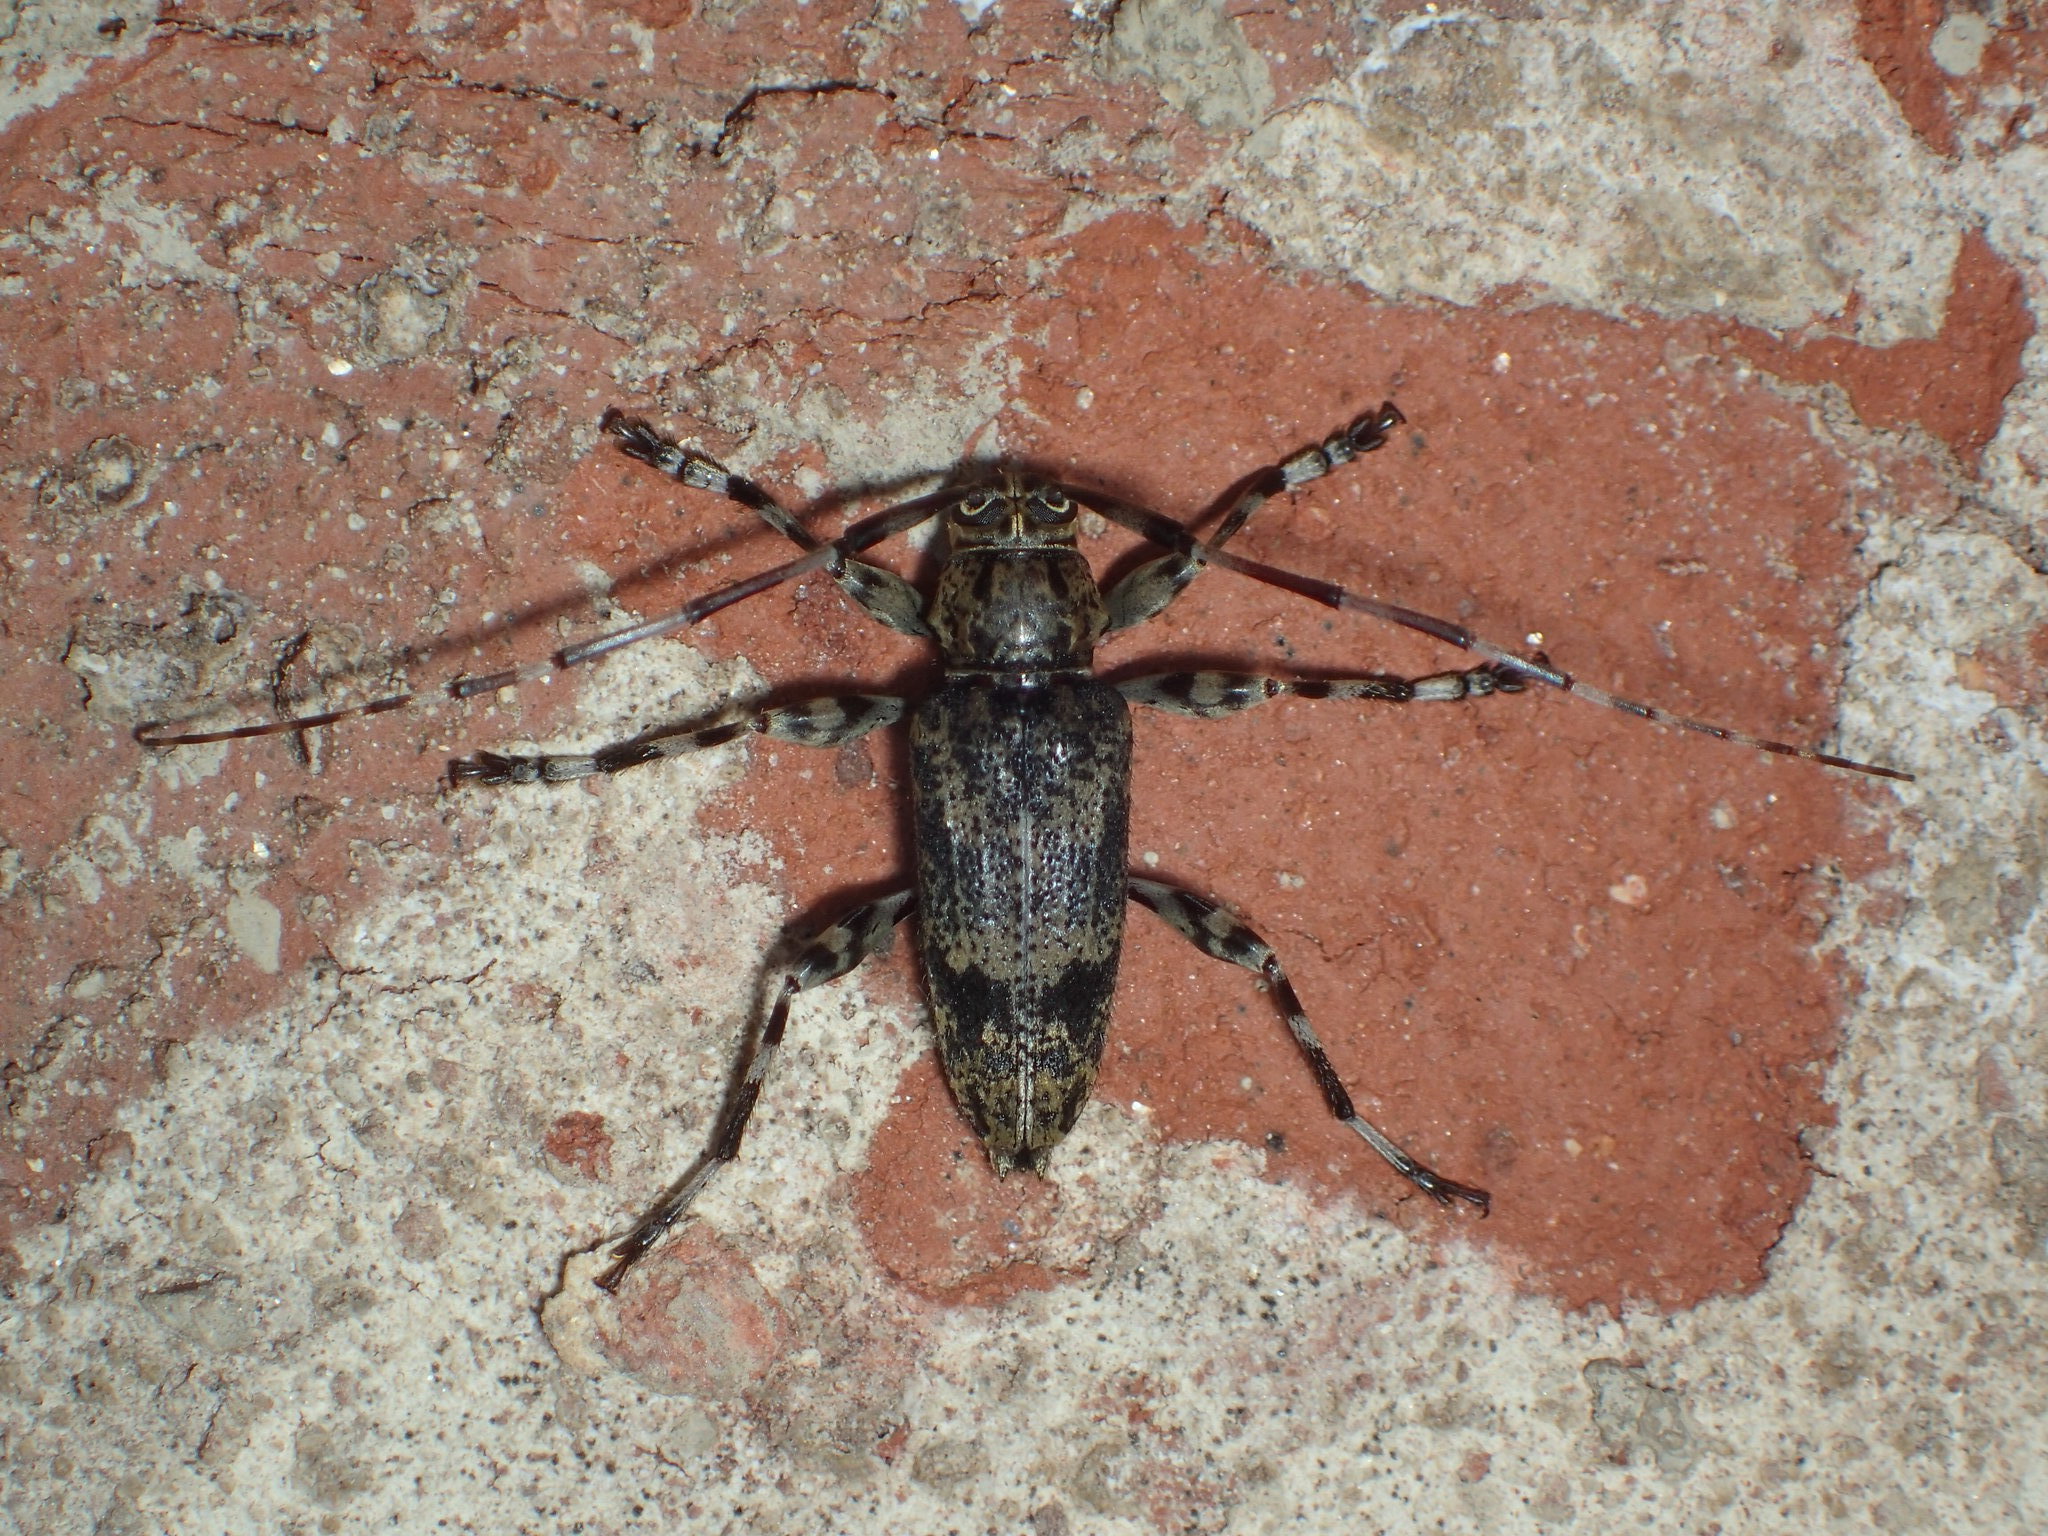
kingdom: Animalia
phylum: Arthropoda
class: Insecta
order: Coleoptera
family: Cerambycidae
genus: Graphisurus
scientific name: Graphisurus fasciatus
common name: Banded graphisurus
